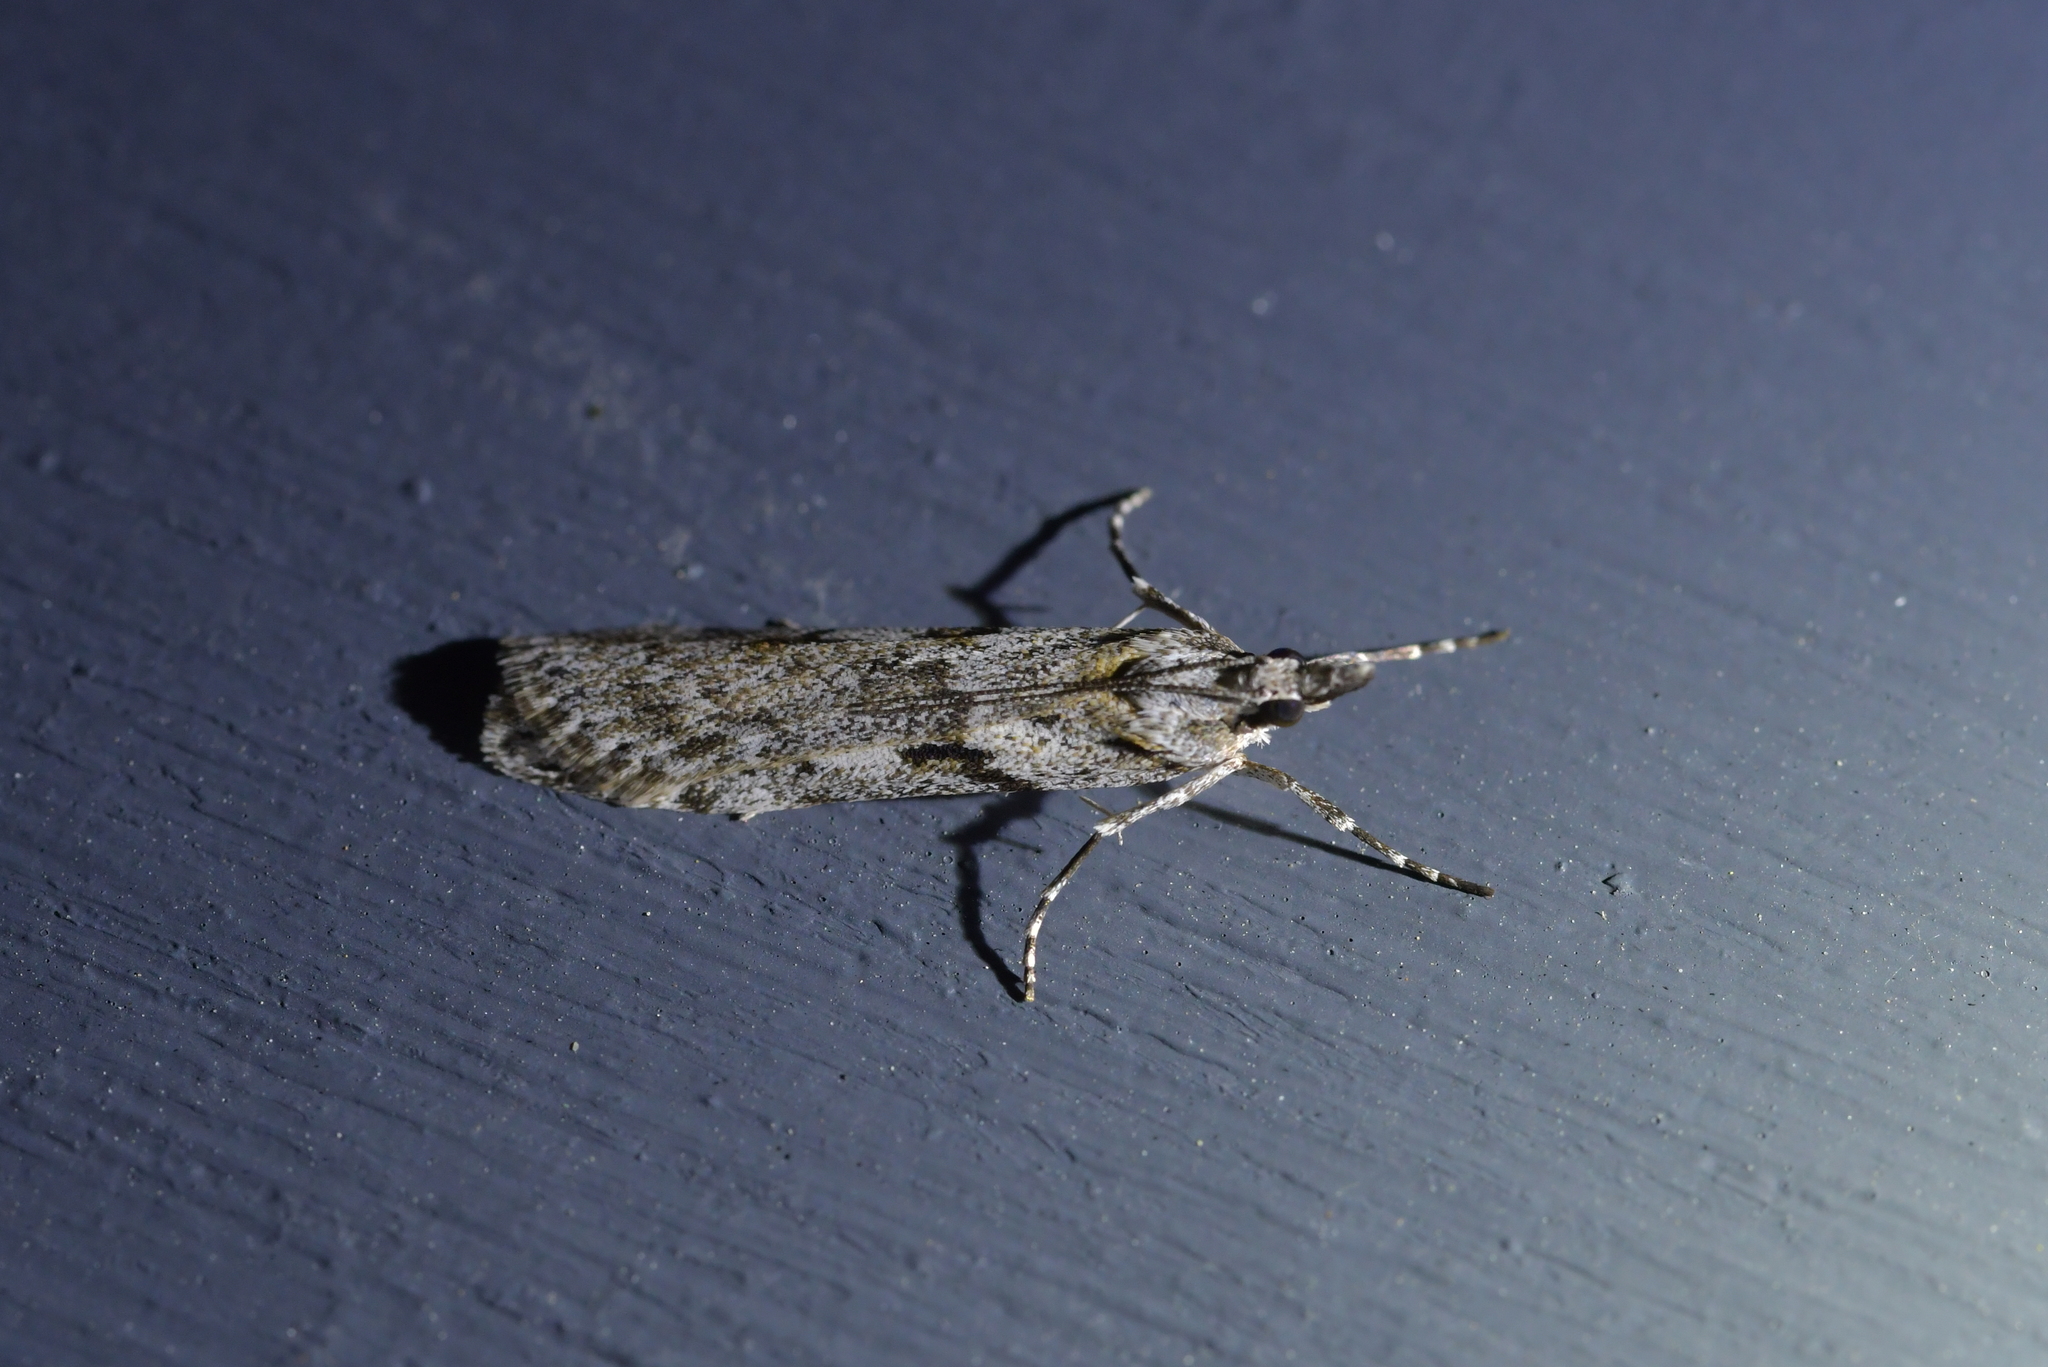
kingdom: Animalia
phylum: Arthropoda
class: Insecta
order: Lepidoptera
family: Crambidae
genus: Scoparia
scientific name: Scoparia halopis
